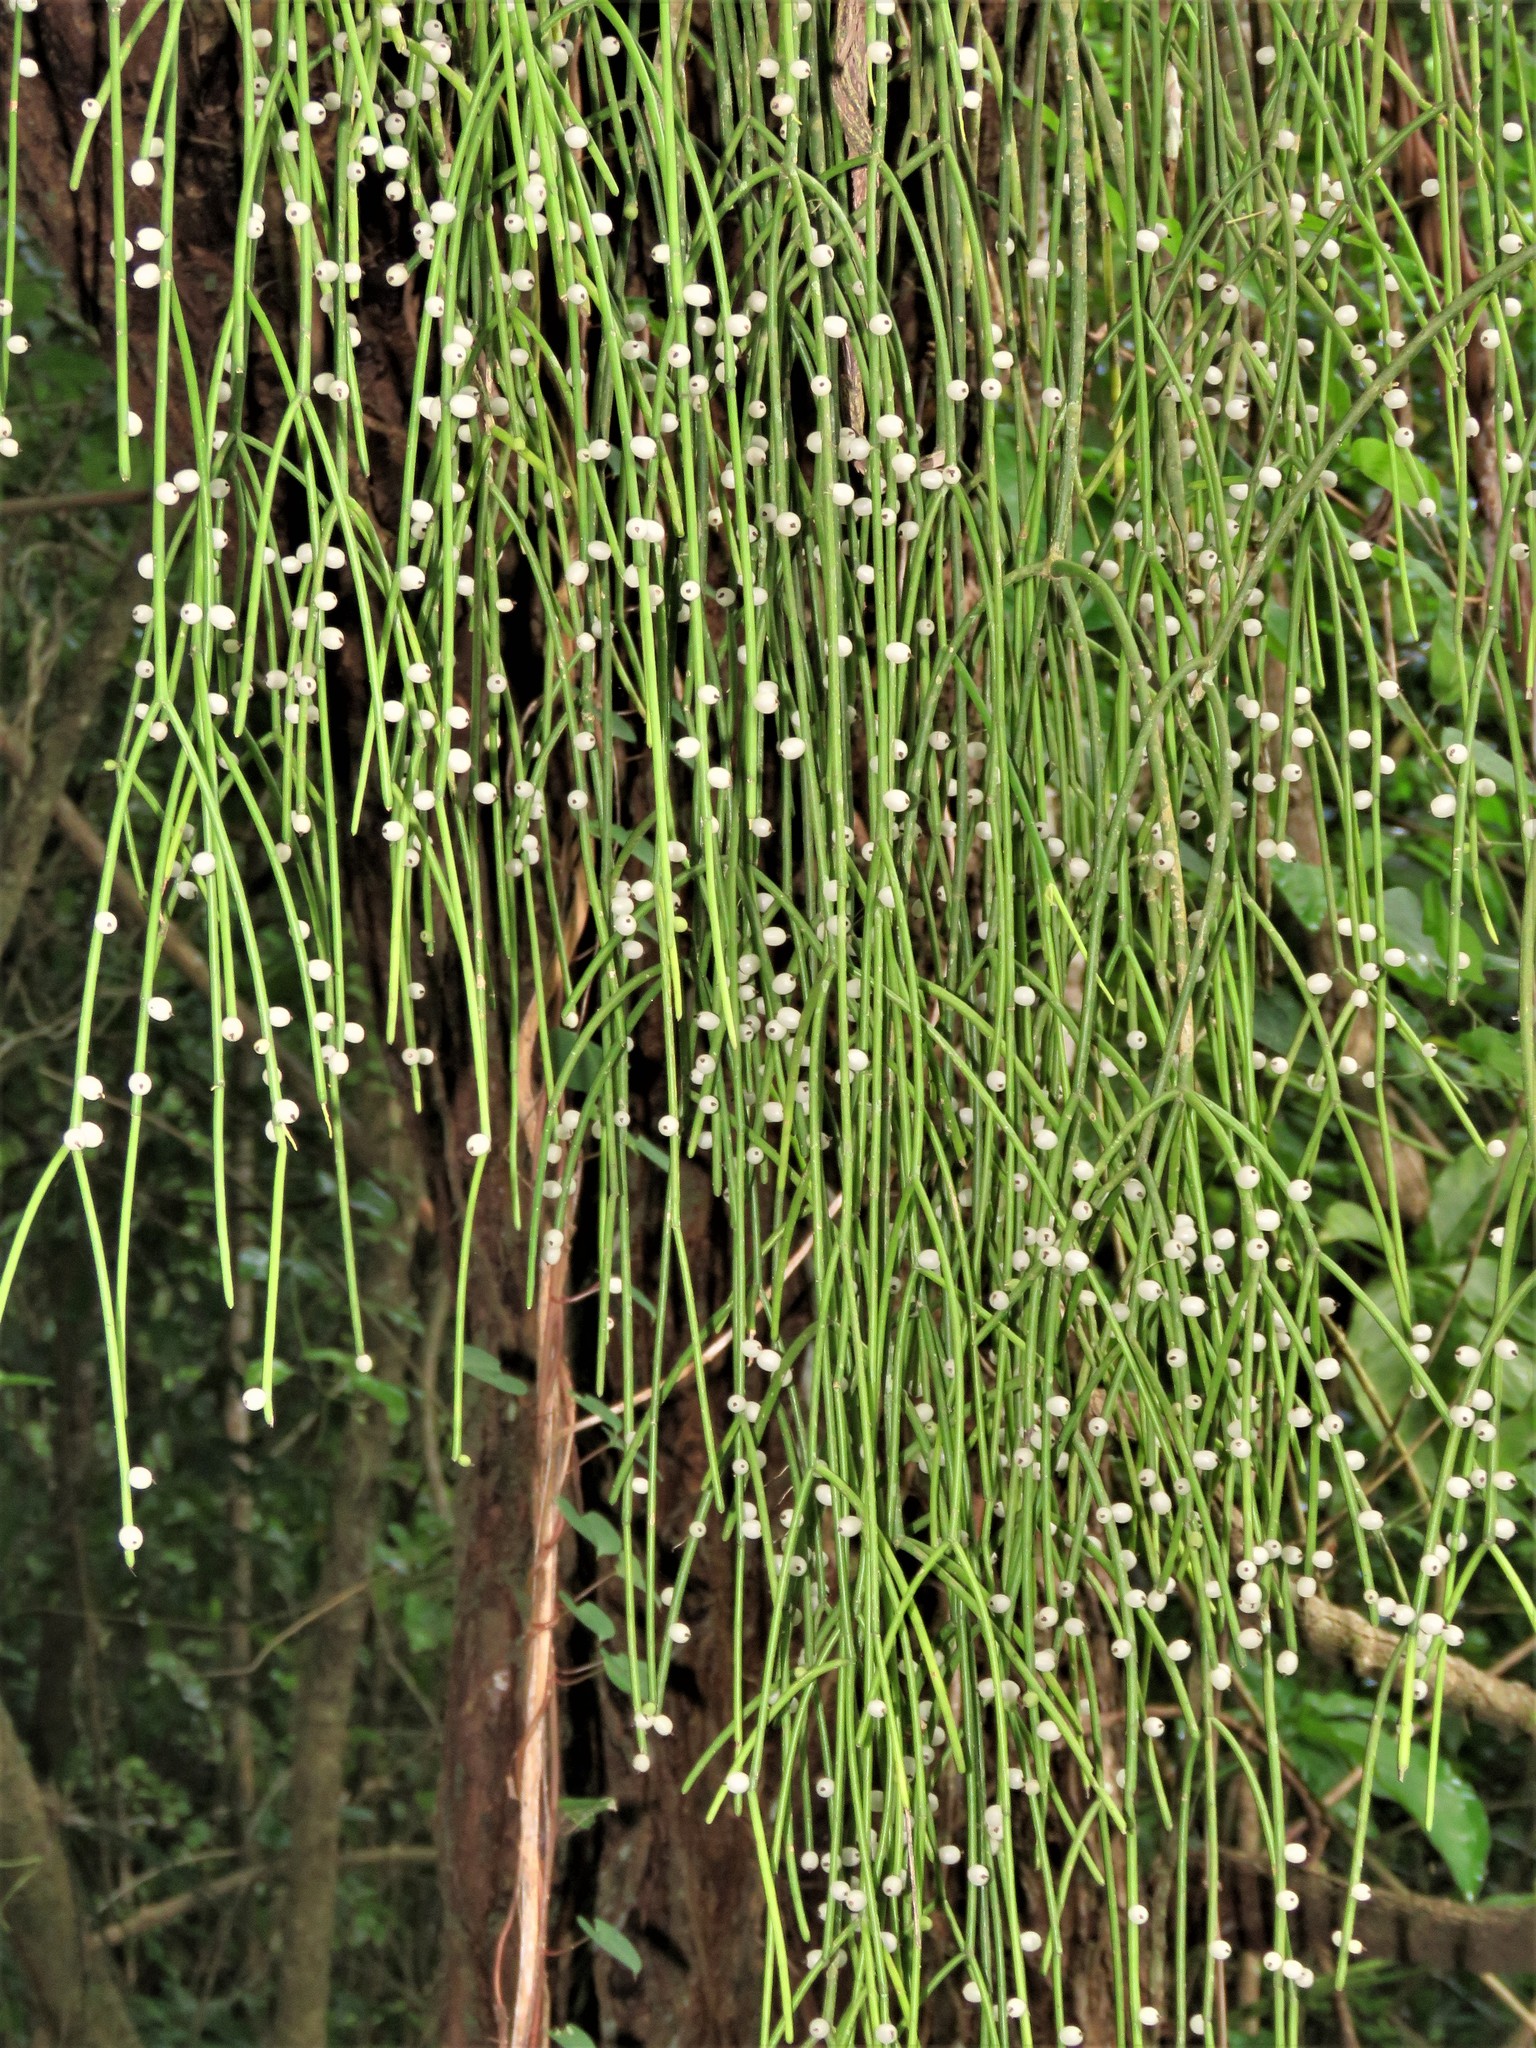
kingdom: Plantae
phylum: Tracheophyta
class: Magnoliopsida
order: Caryophyllales
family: Cactaceae
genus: Rhipsalis
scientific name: Rhipsalis baccifera
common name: Mistletoe cactus
